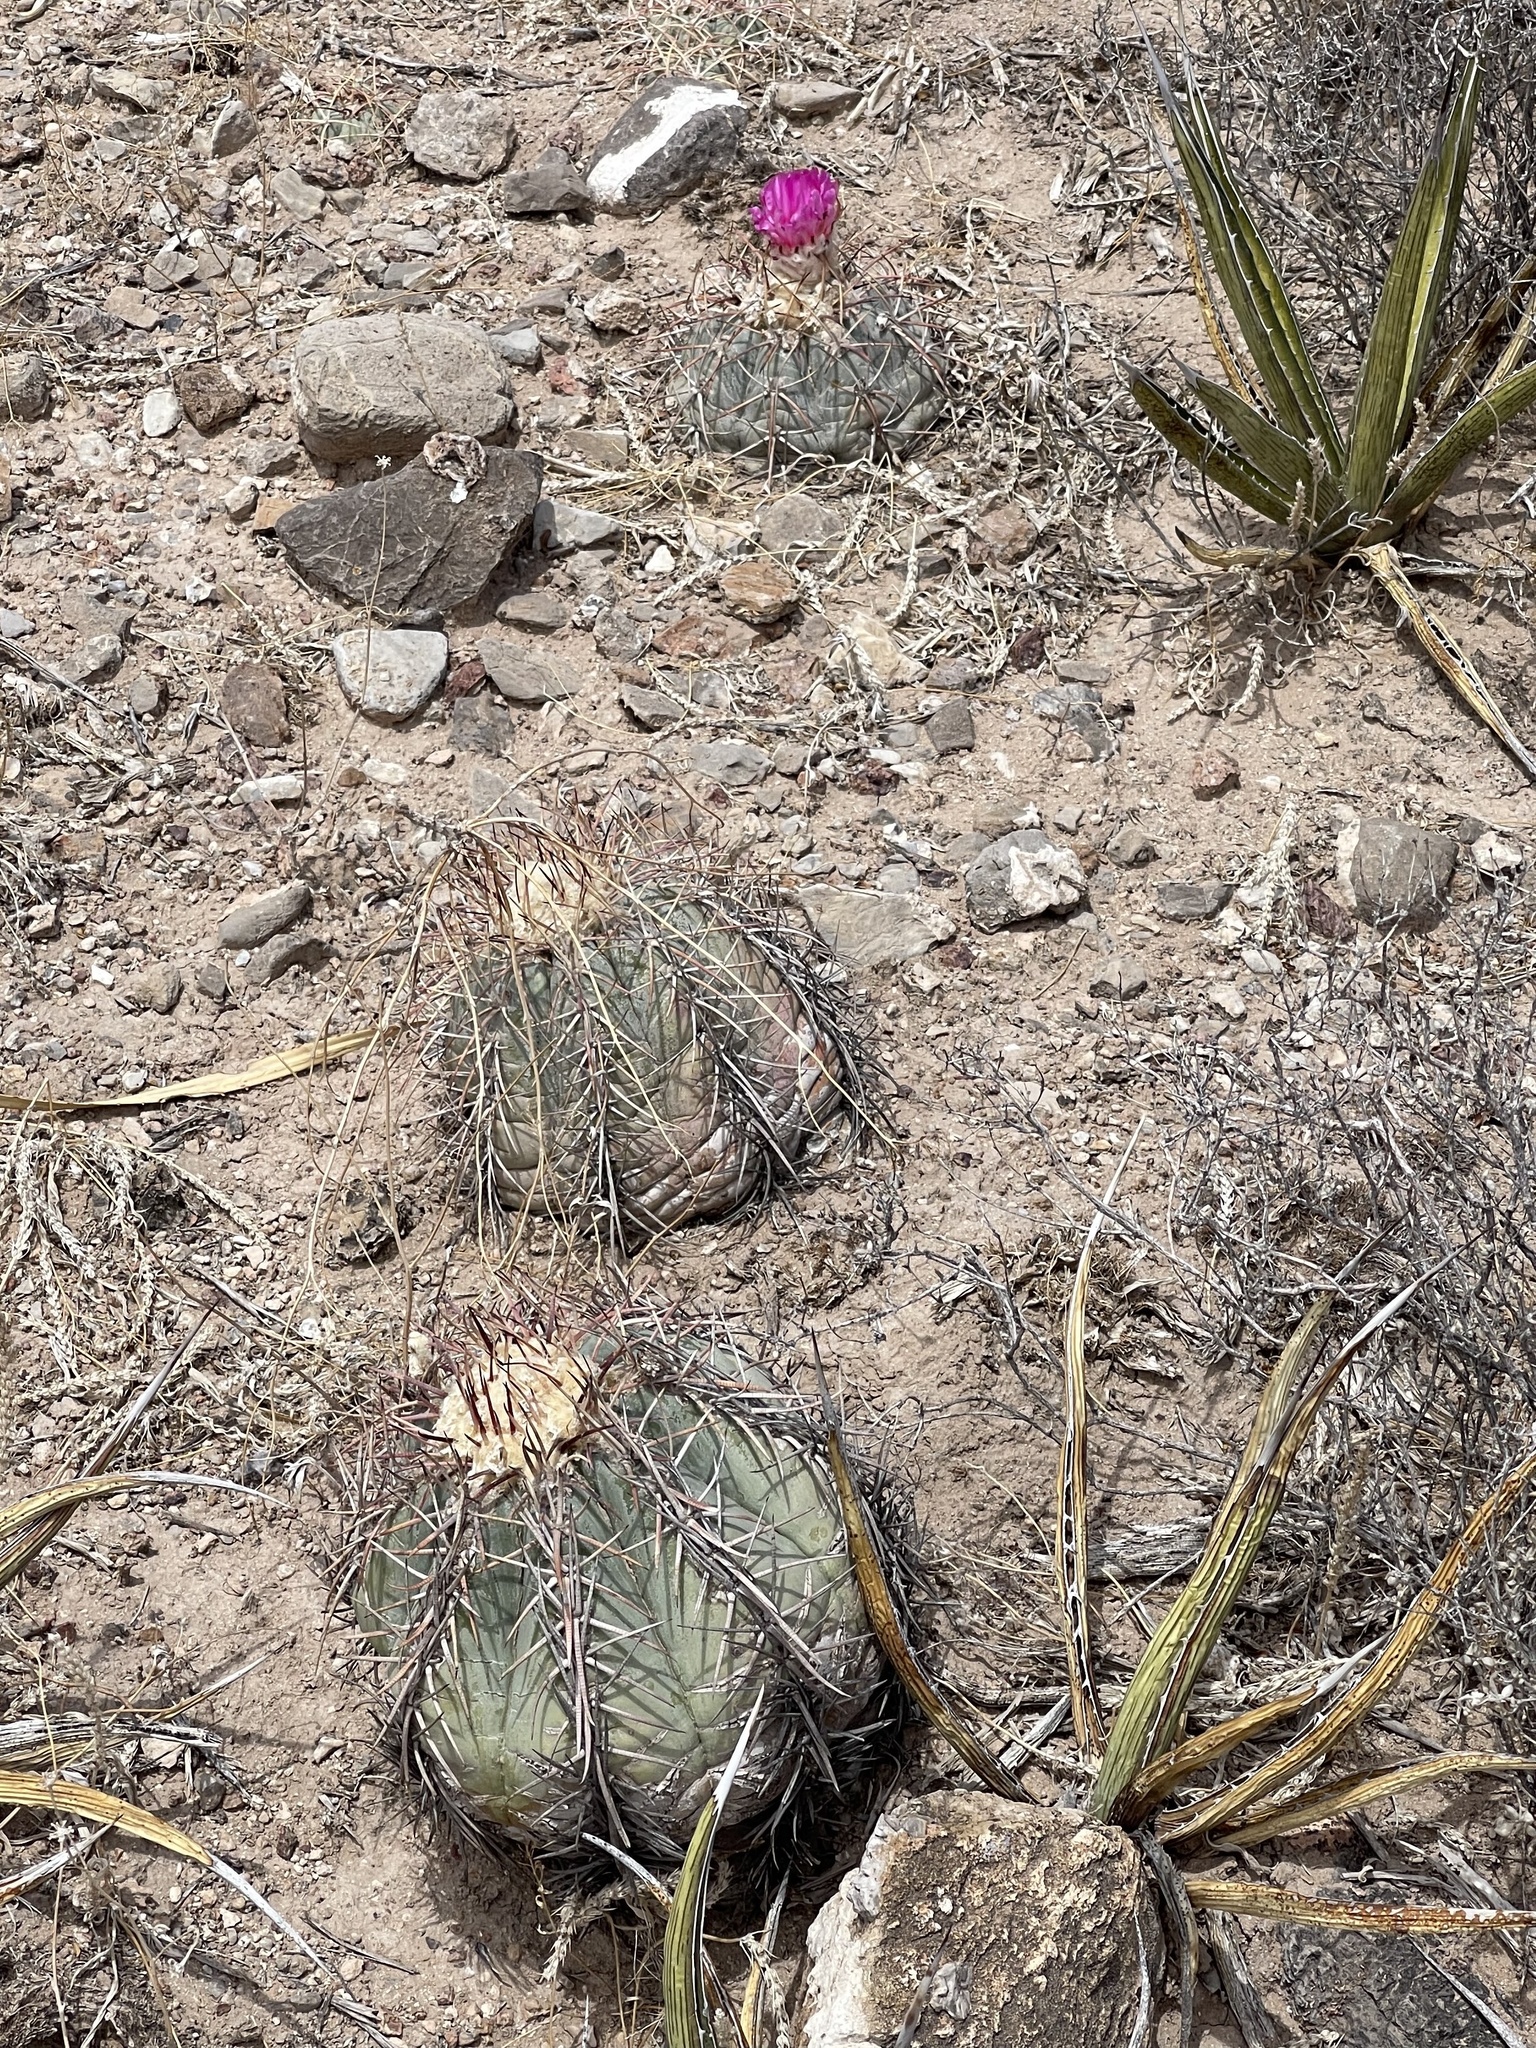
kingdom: Plantae
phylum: Tracheophyta
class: Magnoliopsida
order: Caryophyllales
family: Cactaceae
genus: Echinocactus
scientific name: Echinocactus horizonthalonius
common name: Devilshead
